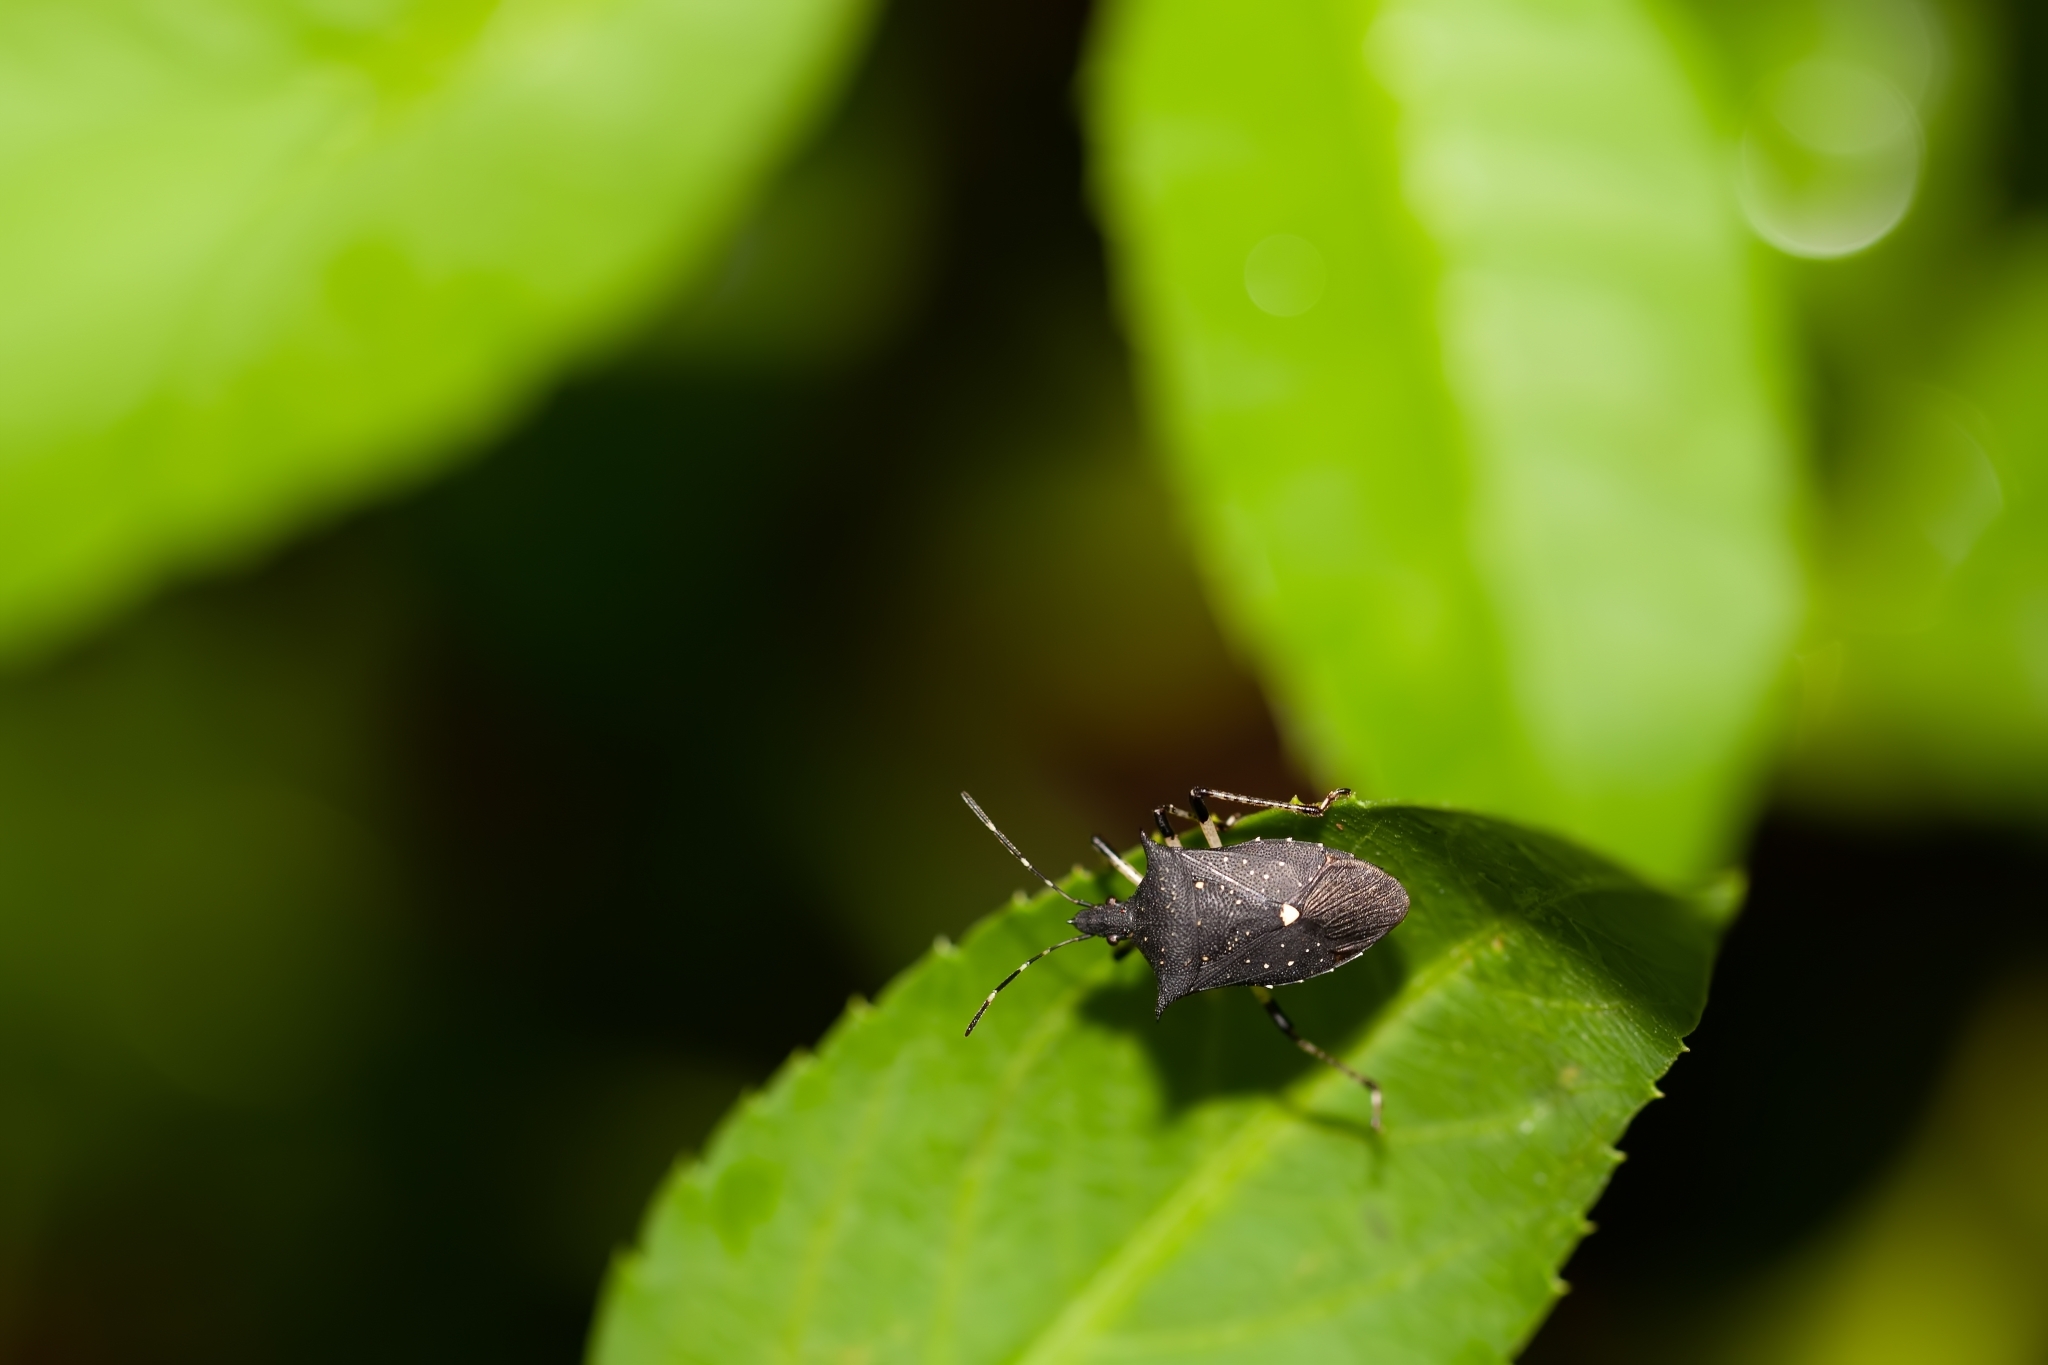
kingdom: Animalia
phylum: Arthropoda
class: Insecta
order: Hemiptera
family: Pentatomidae
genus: Proxys
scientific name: Proxys punctulatus
